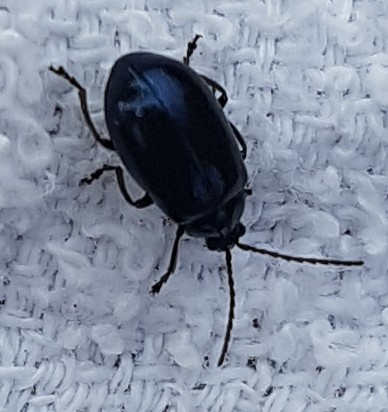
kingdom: Animalia
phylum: Arthropoda
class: Insecta
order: Coleoptera
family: Chrysomelidae
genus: Agelastica
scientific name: Agelastica alni
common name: Alder leaf beetle
